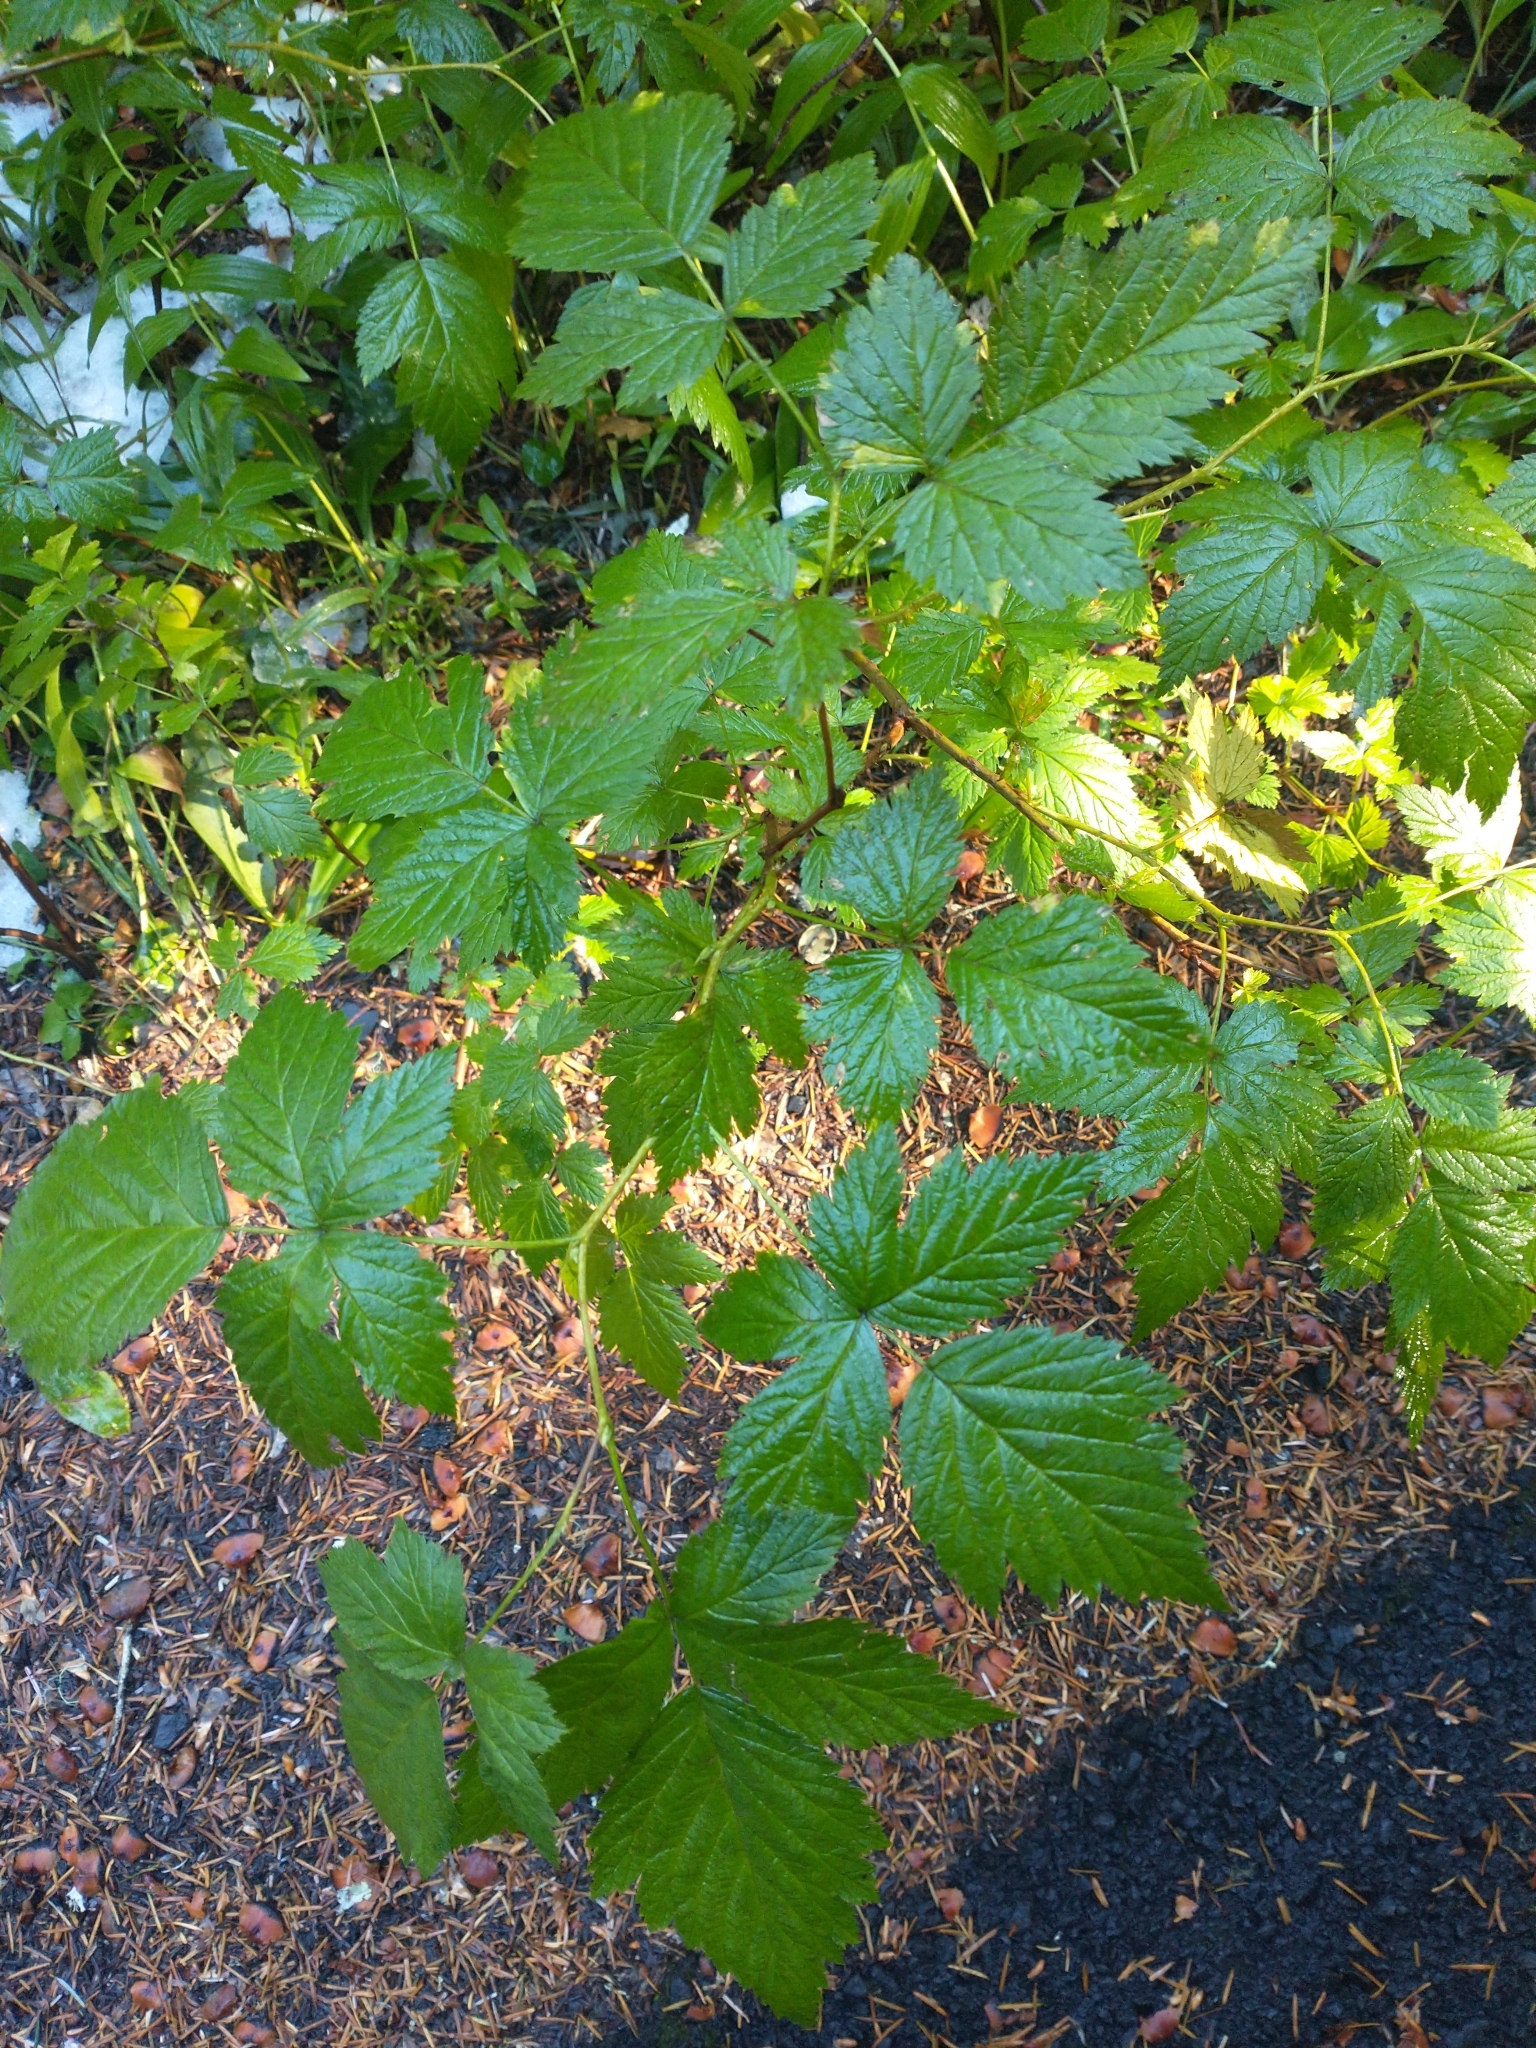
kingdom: Plantae
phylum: Tracheophyta
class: Magnoliopsida
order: Rosales
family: Rosaceae
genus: Rubus
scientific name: Rubus spectabilis
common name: Salmonberry
